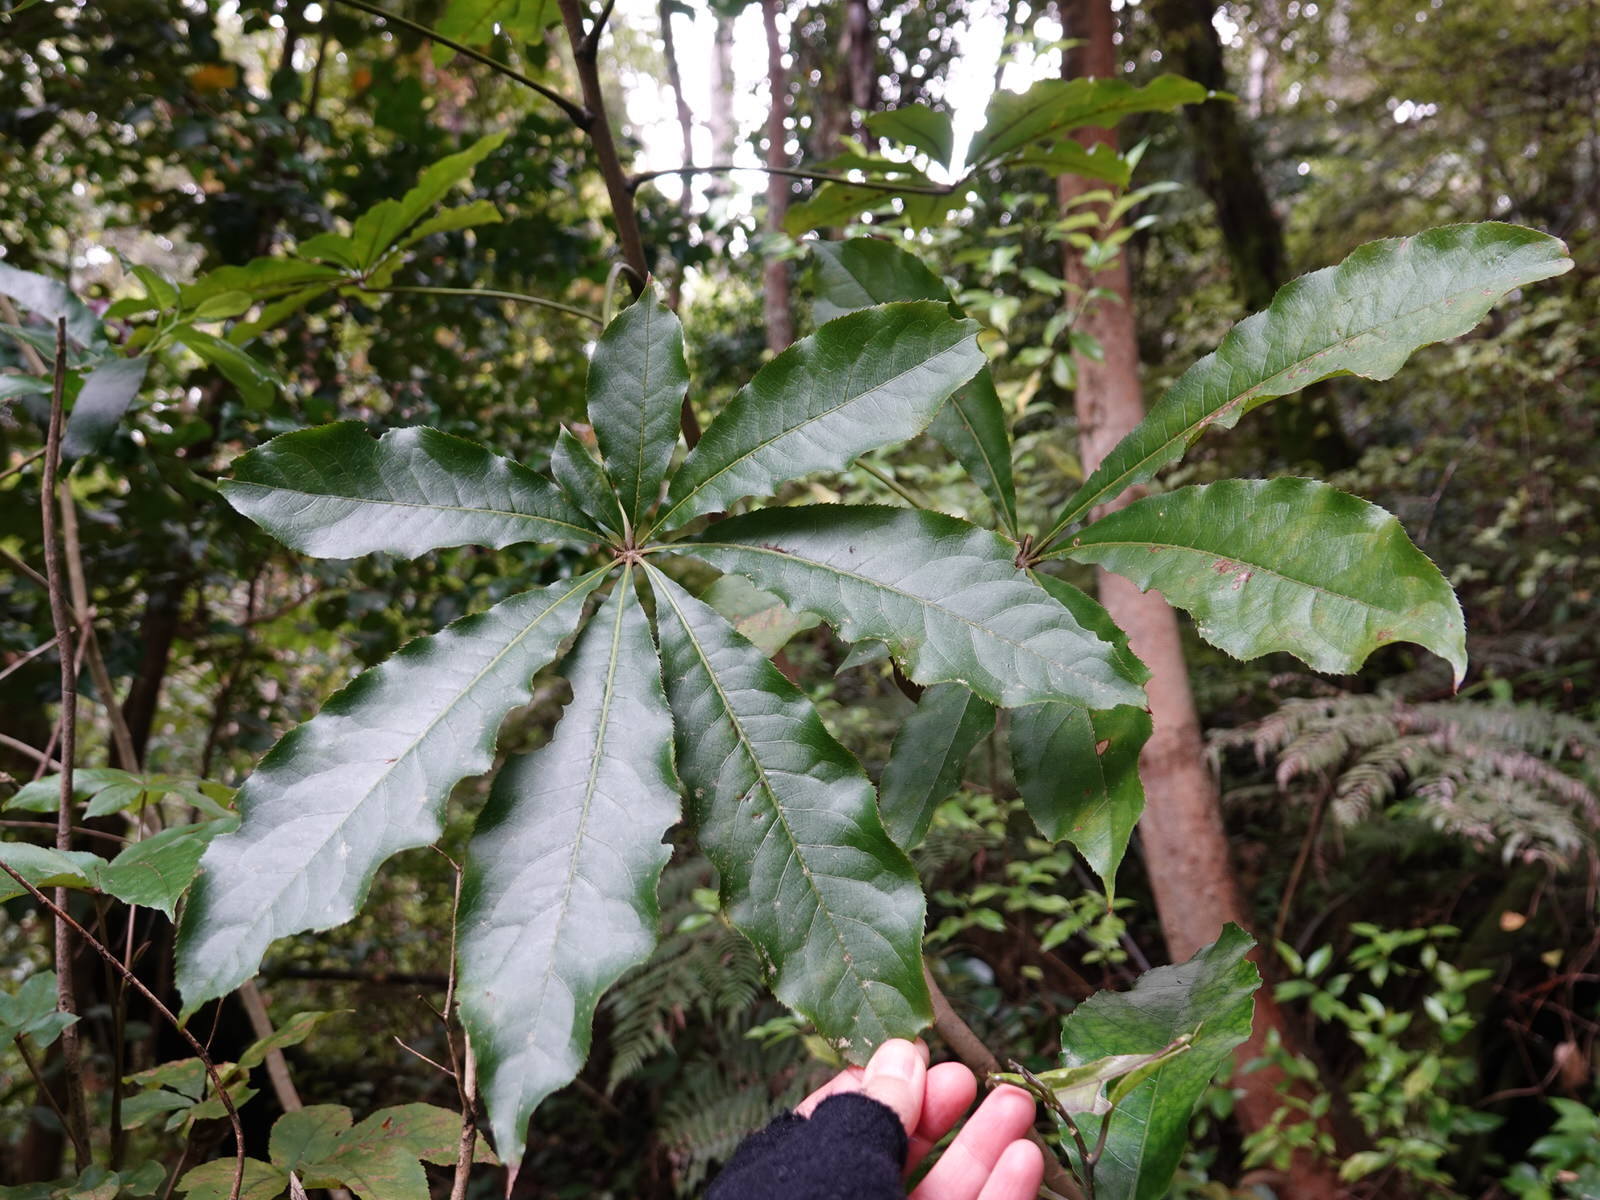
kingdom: Plantae
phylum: Tracheophyta
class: Magnoliopsida
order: Apiales
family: Araliaceae
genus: Schefflera
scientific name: Schefflera digitata
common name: Pate
